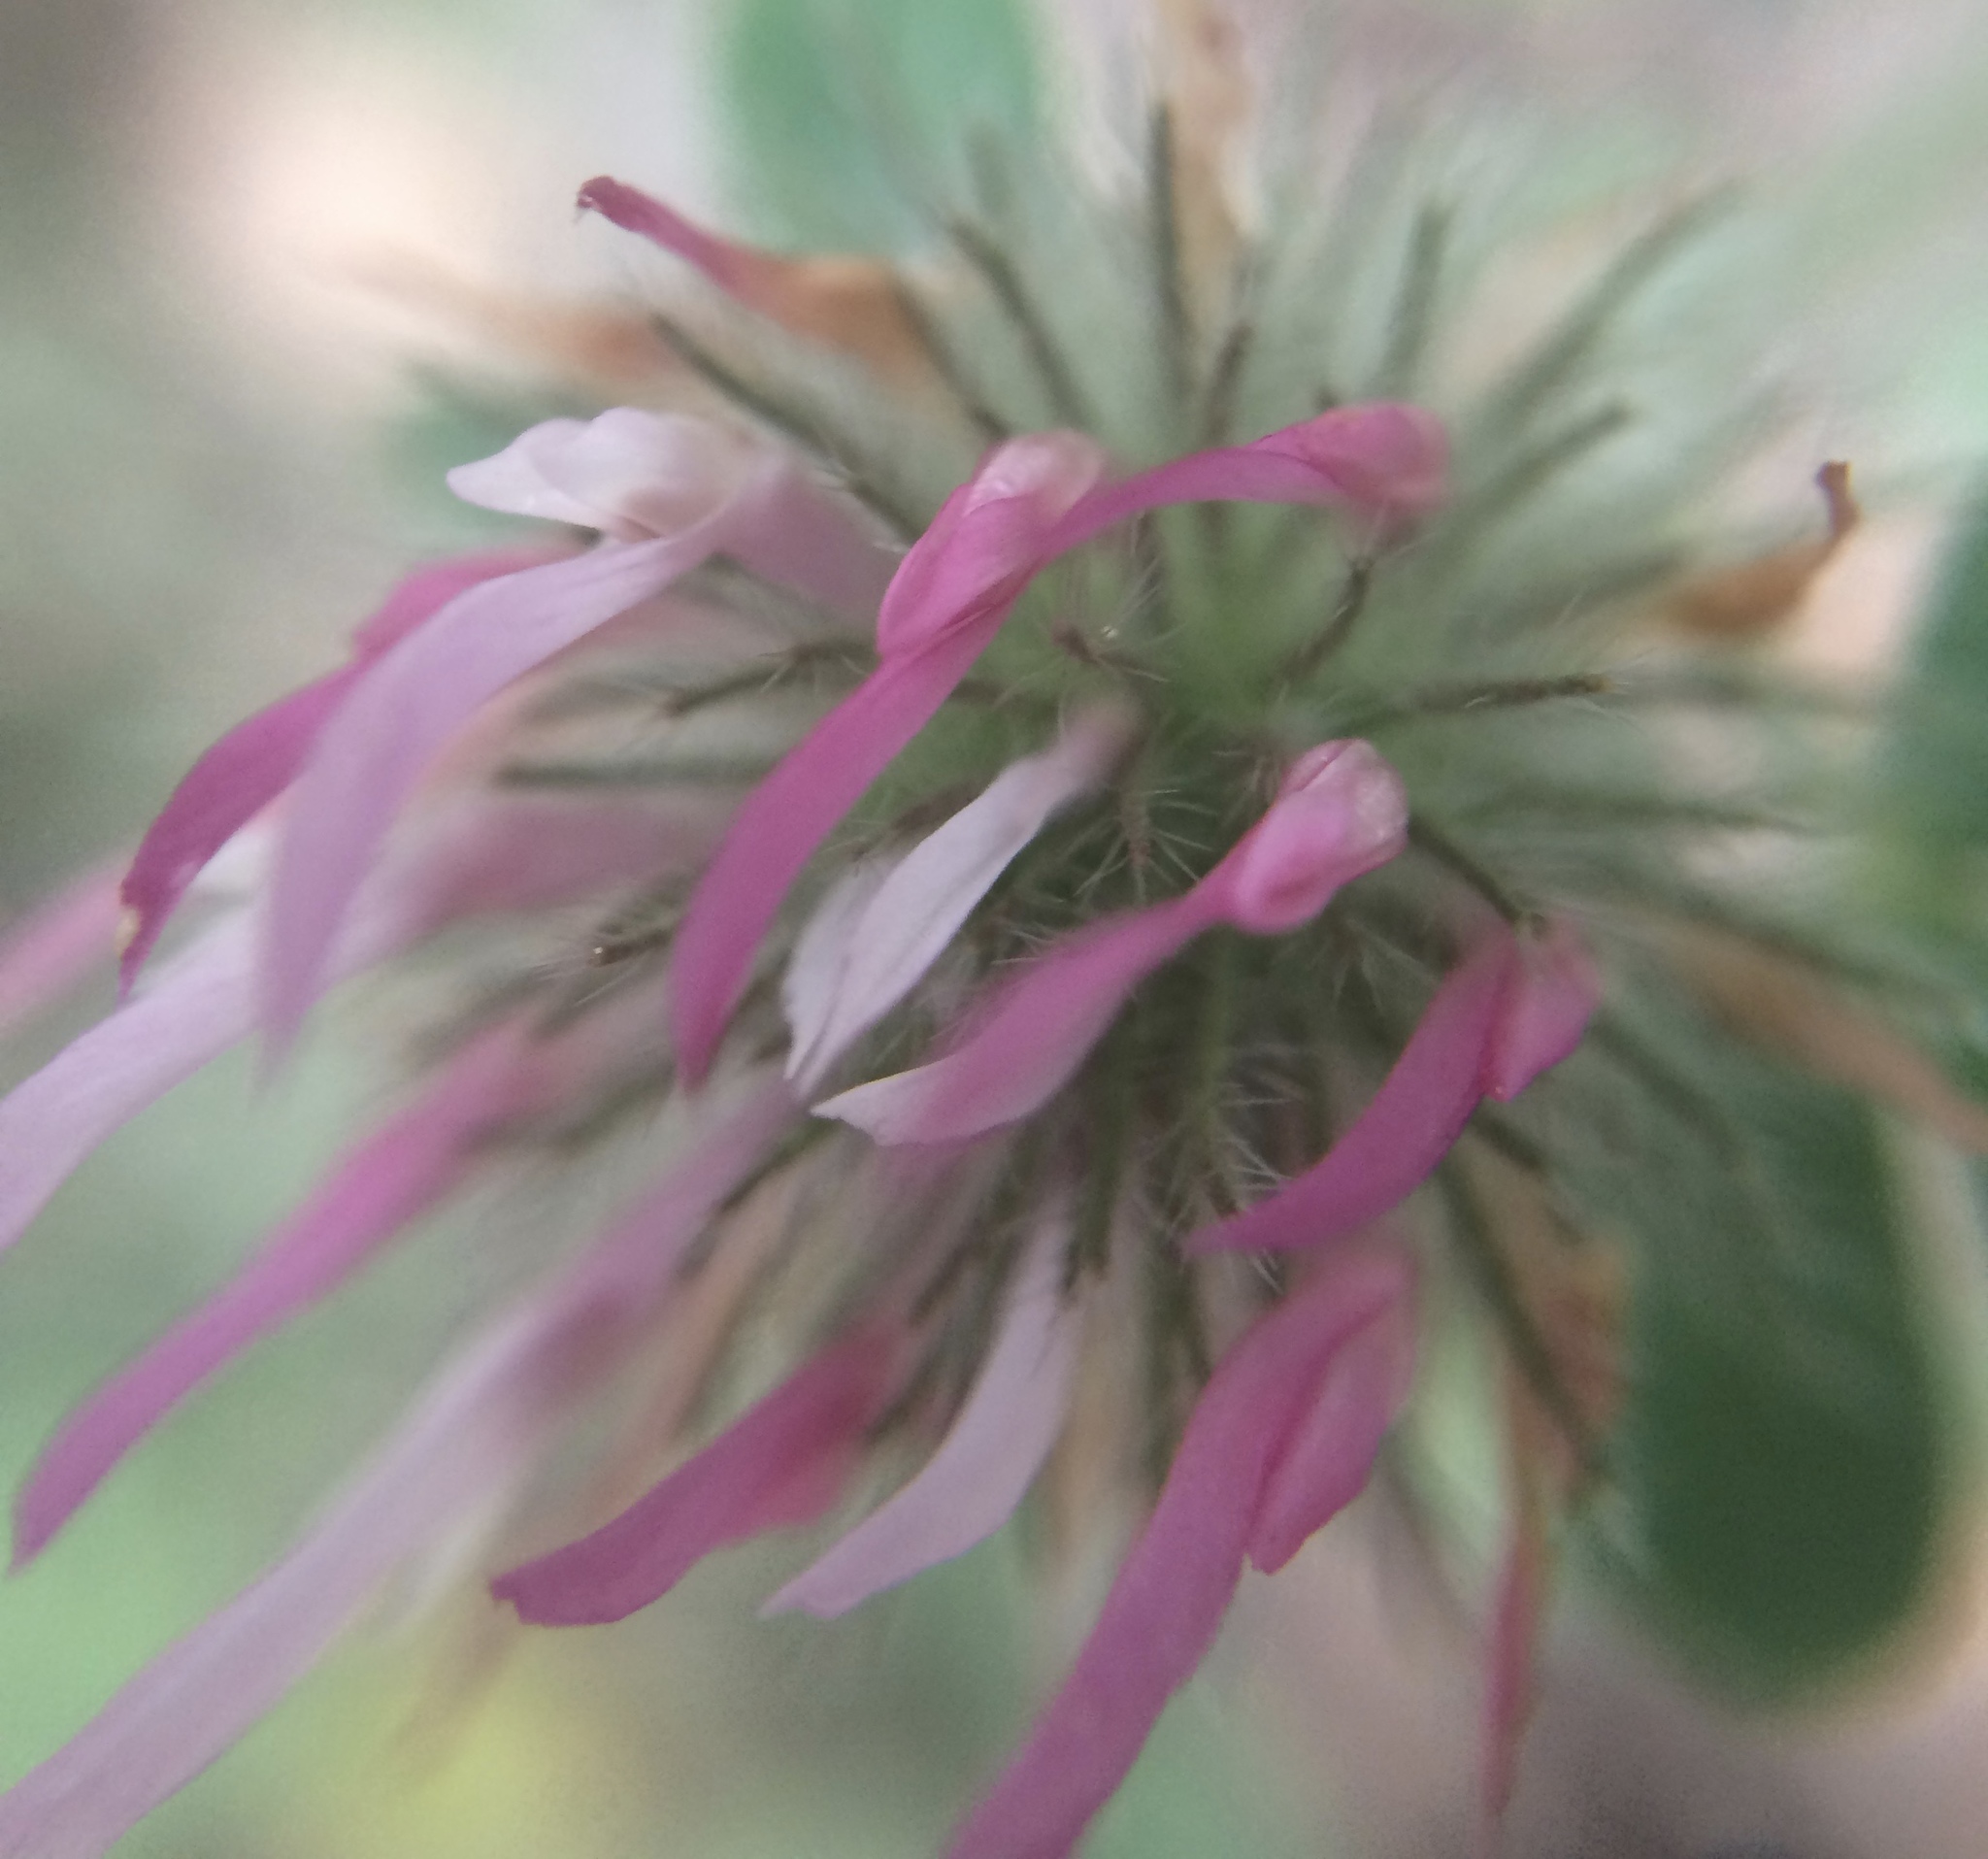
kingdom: Plantae
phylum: Tracheophyta
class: Magnoliopsida
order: Fabales
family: Fabaceae
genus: Trifolium
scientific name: Trifolium hirtum
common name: Rose clover
